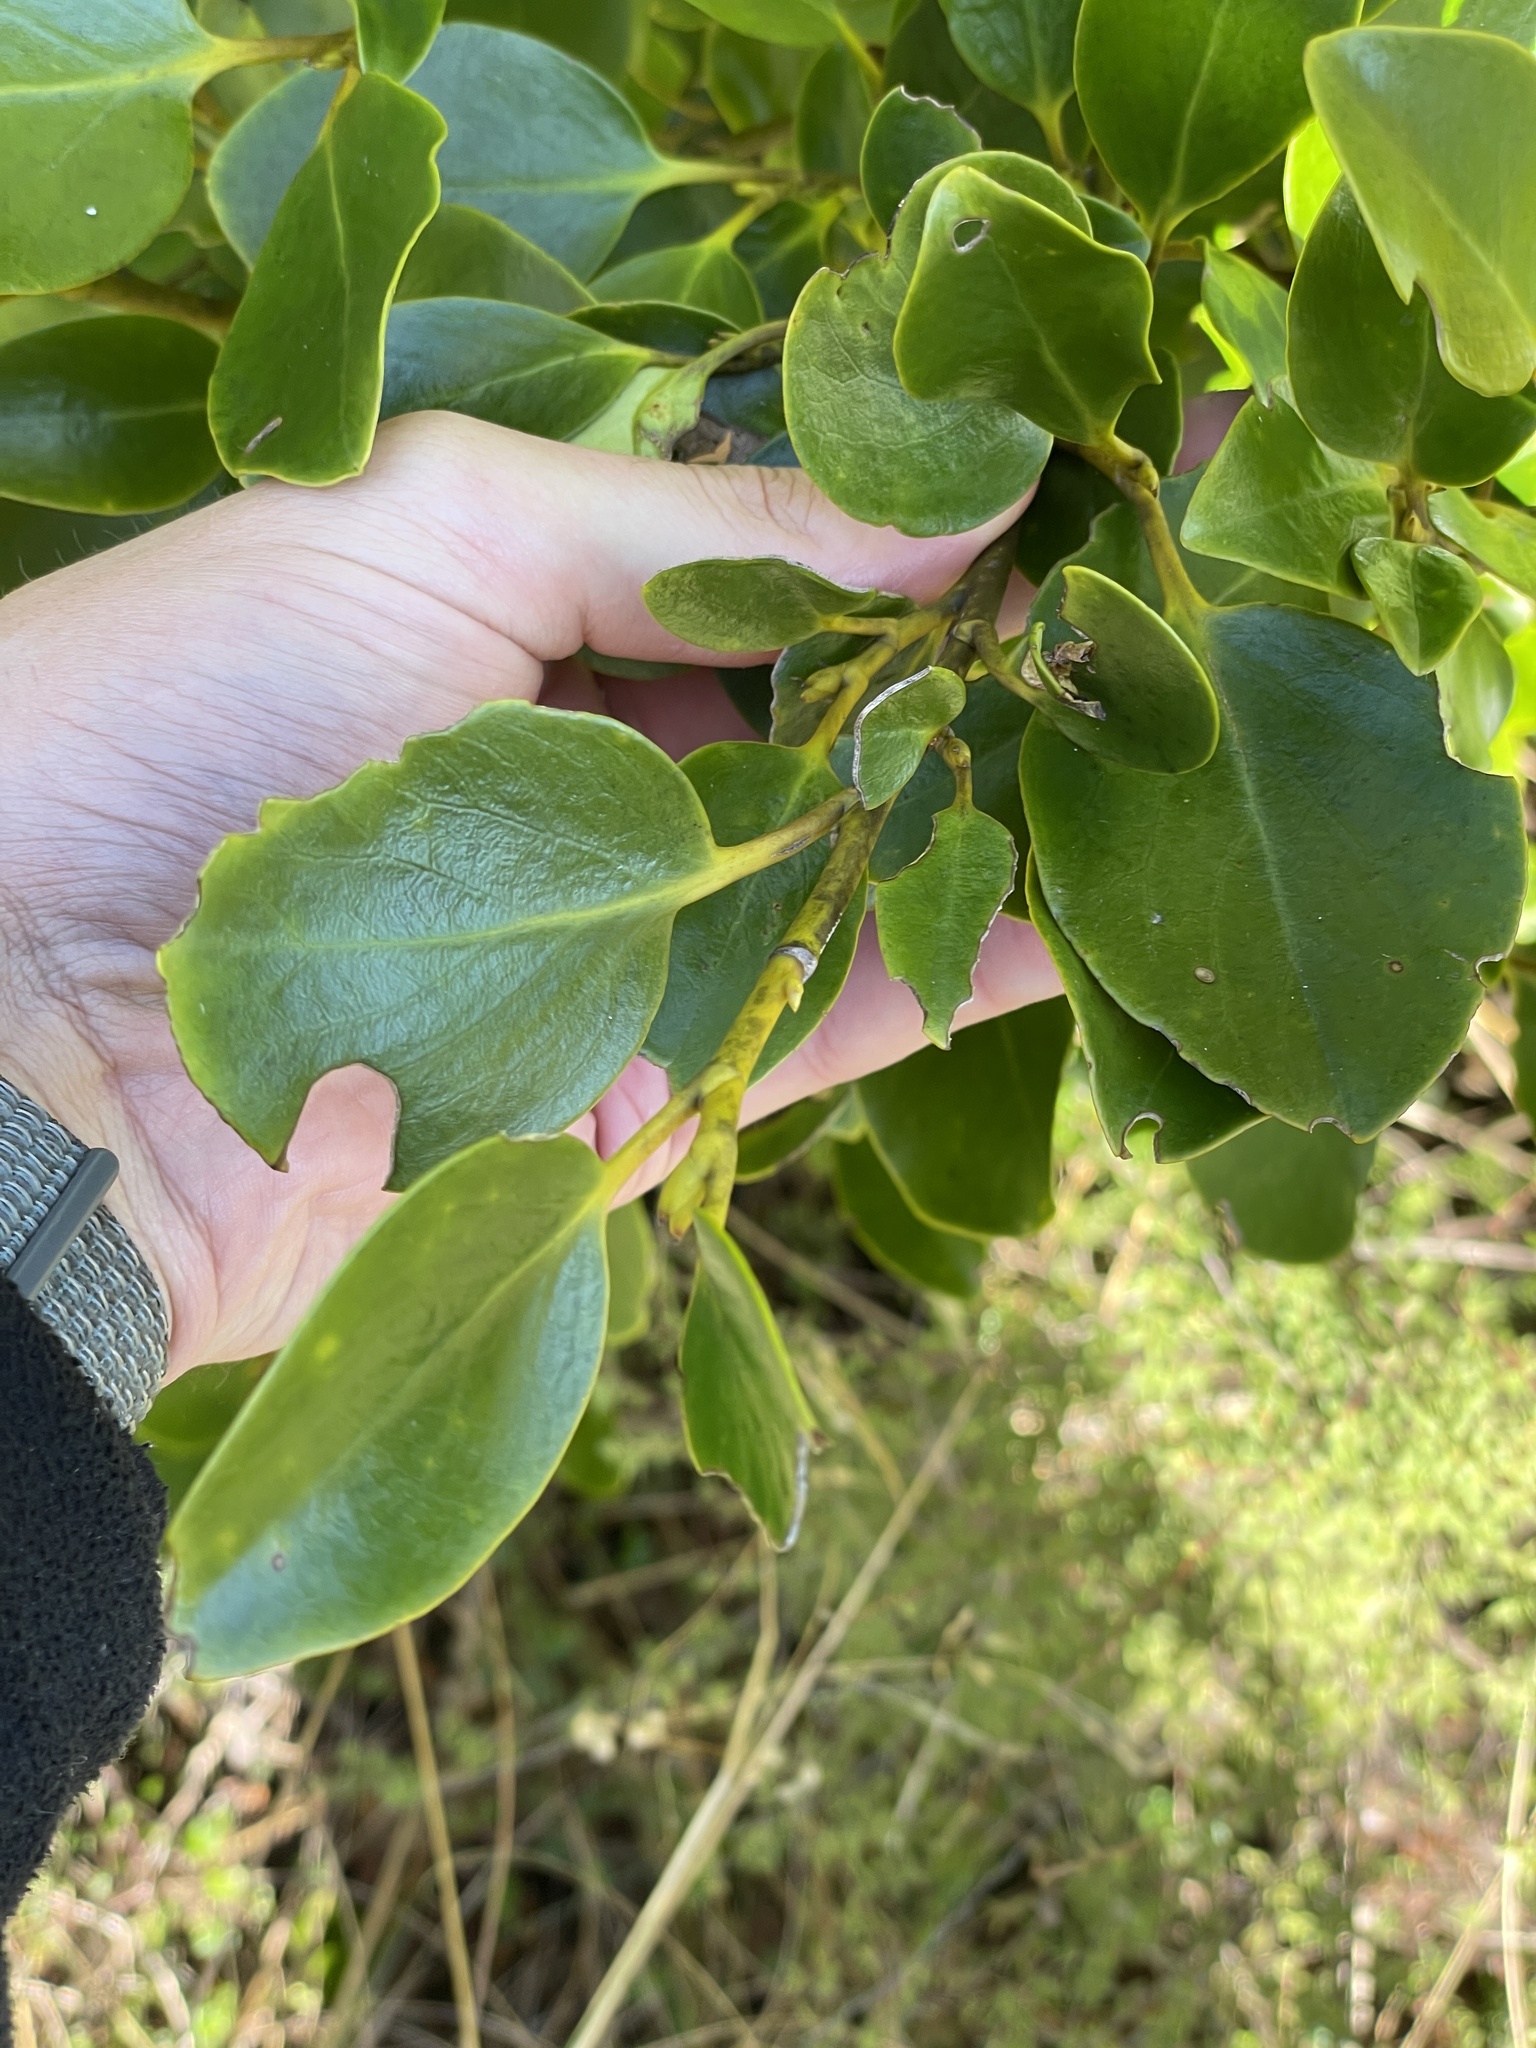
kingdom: Plantae
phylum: Tracheophyta
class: Magnoliopsida
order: Apiales
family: Griseliniaceae
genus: Griselinia
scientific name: Griselinia littoralis
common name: New zealand broadleaf
